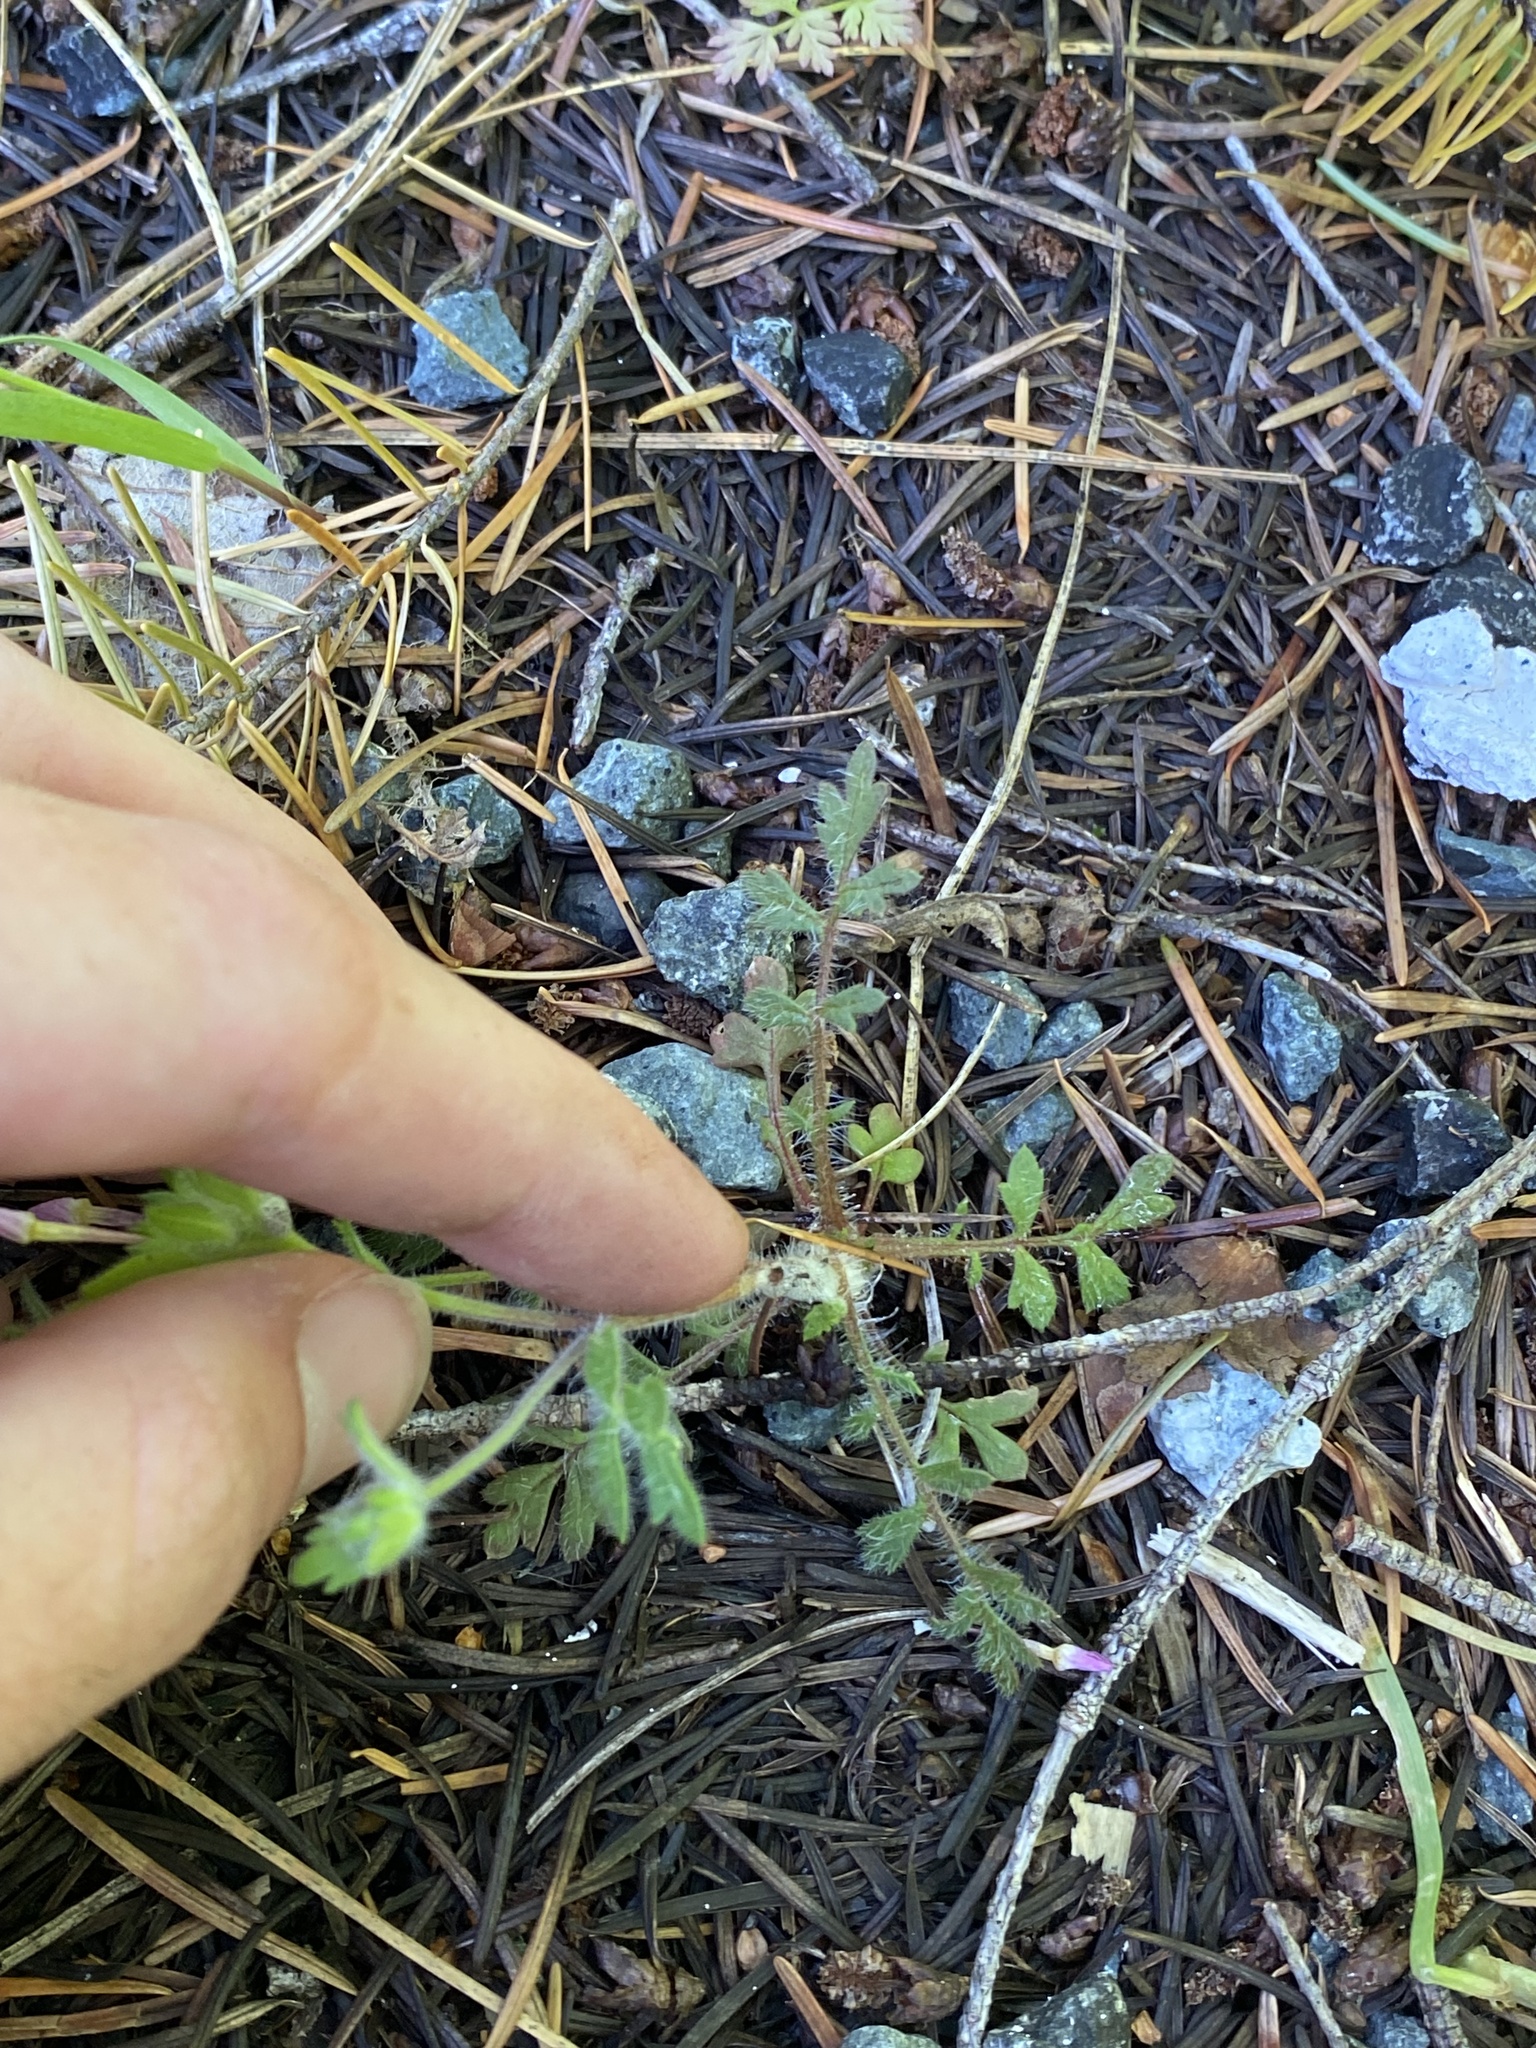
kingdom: Plantae
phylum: Tracheophyta
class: Magnoliopsida
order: Ericales
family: Polemoniaceae
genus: Collomia
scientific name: Collomia heterophylla
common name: Variable-leaved collomia
